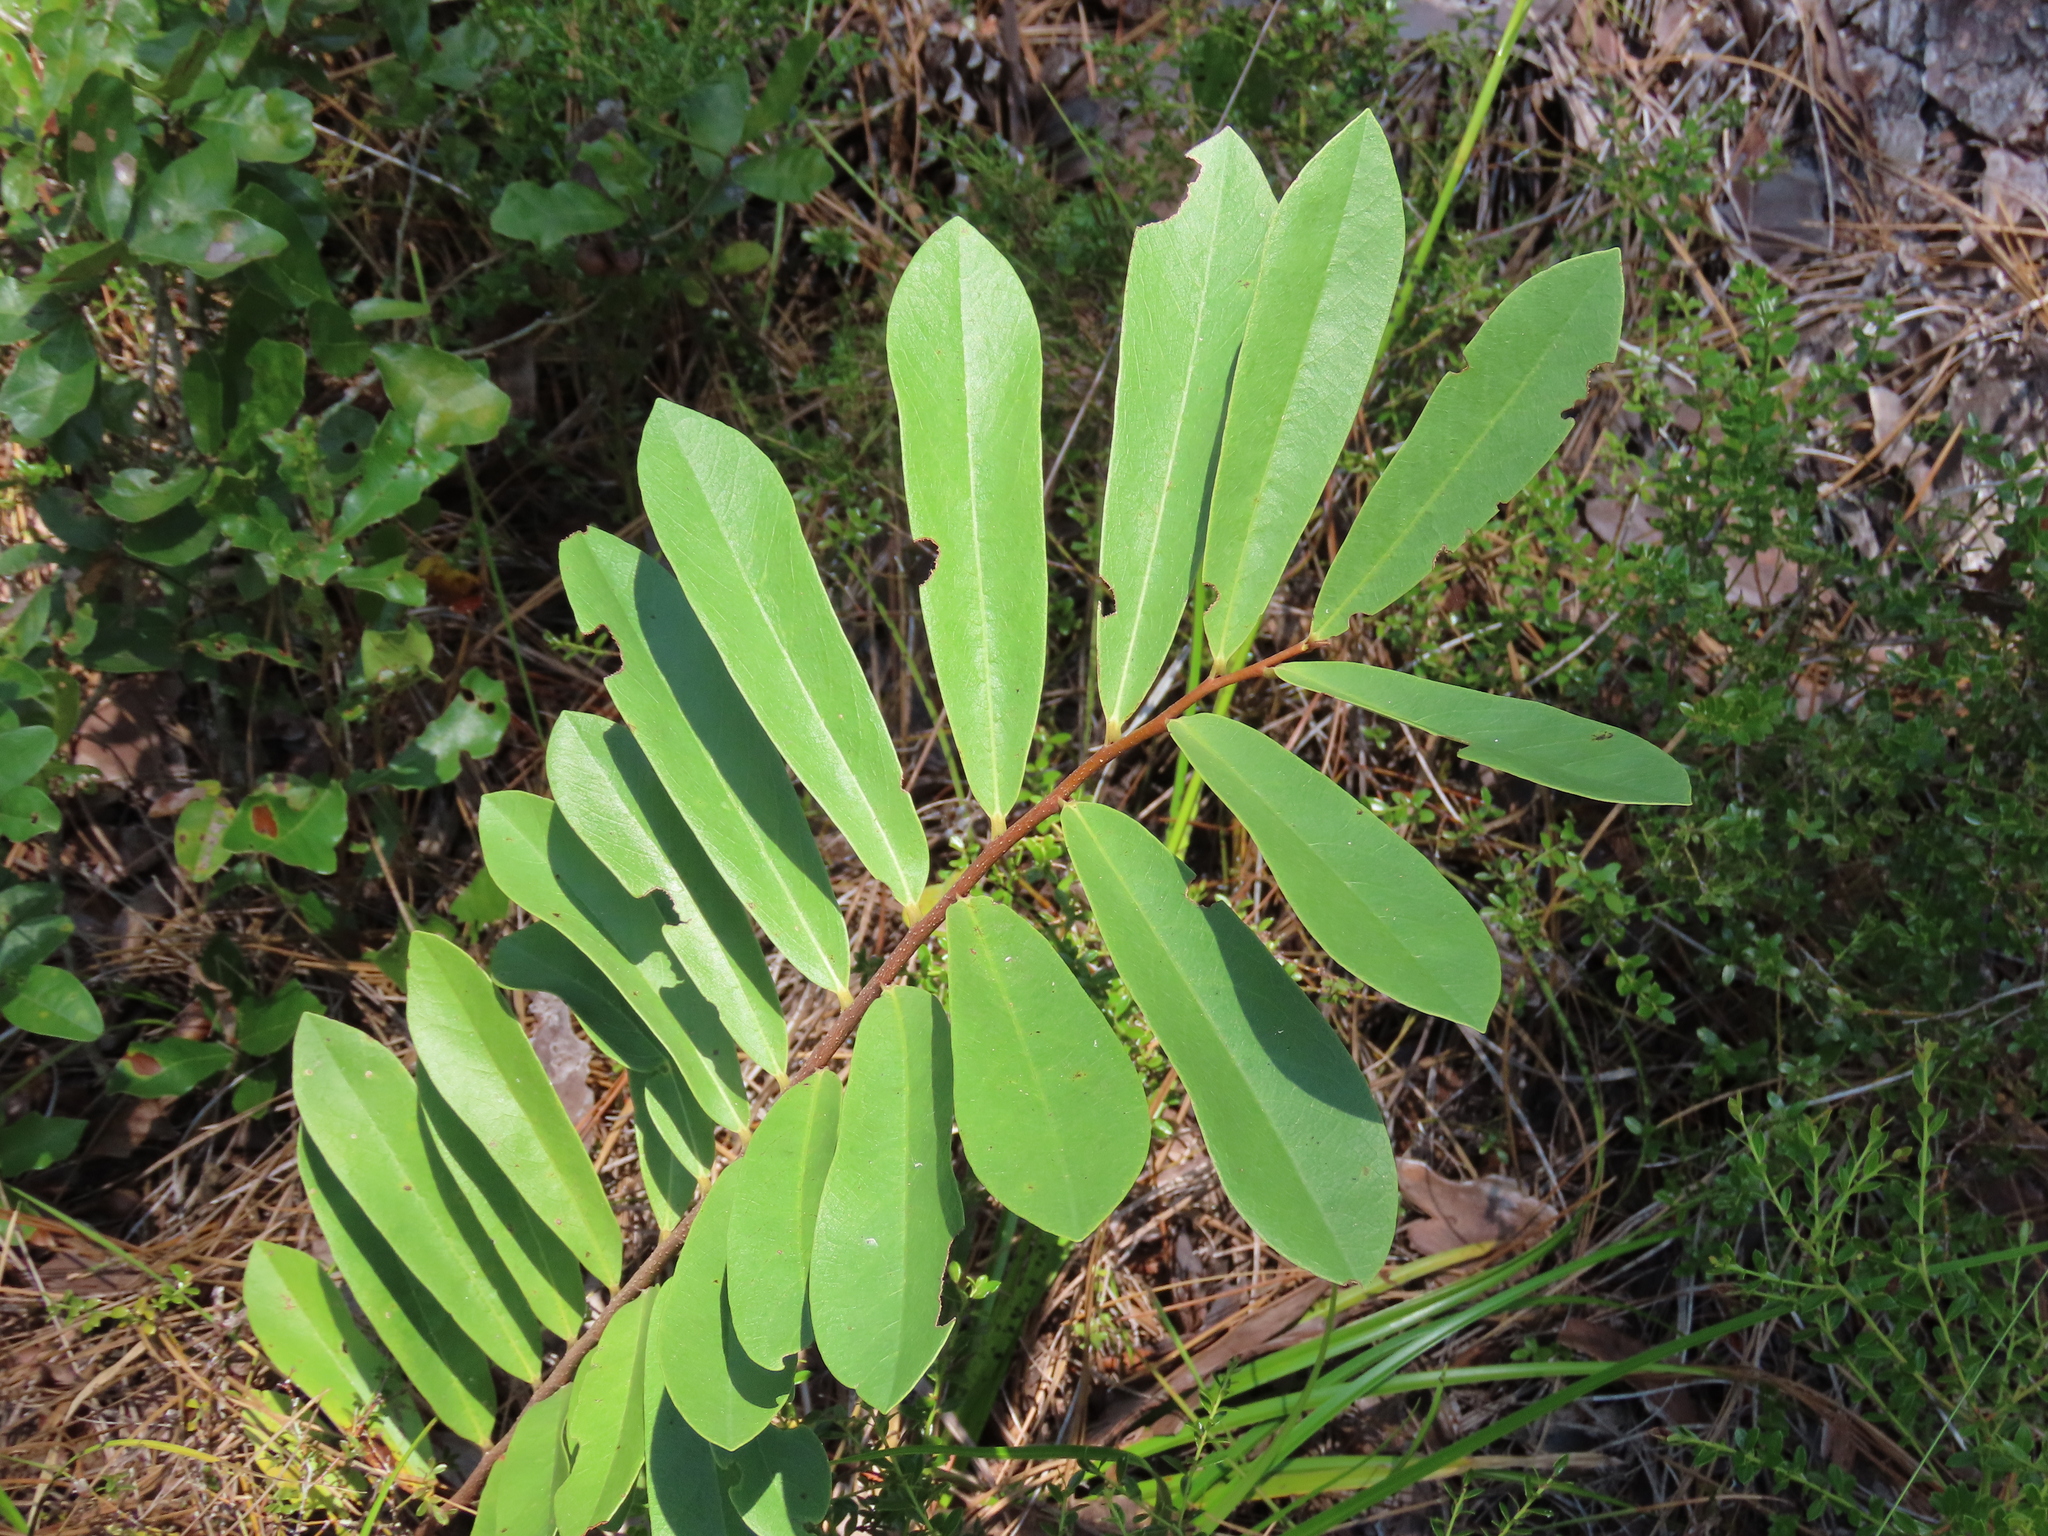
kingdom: Plantae
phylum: Tracheophyta
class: Magnoliopsida
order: Magnoliales
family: Annonaceae
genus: Asimina
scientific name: Asimina pygmaea
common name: Dwarf pawpaw
